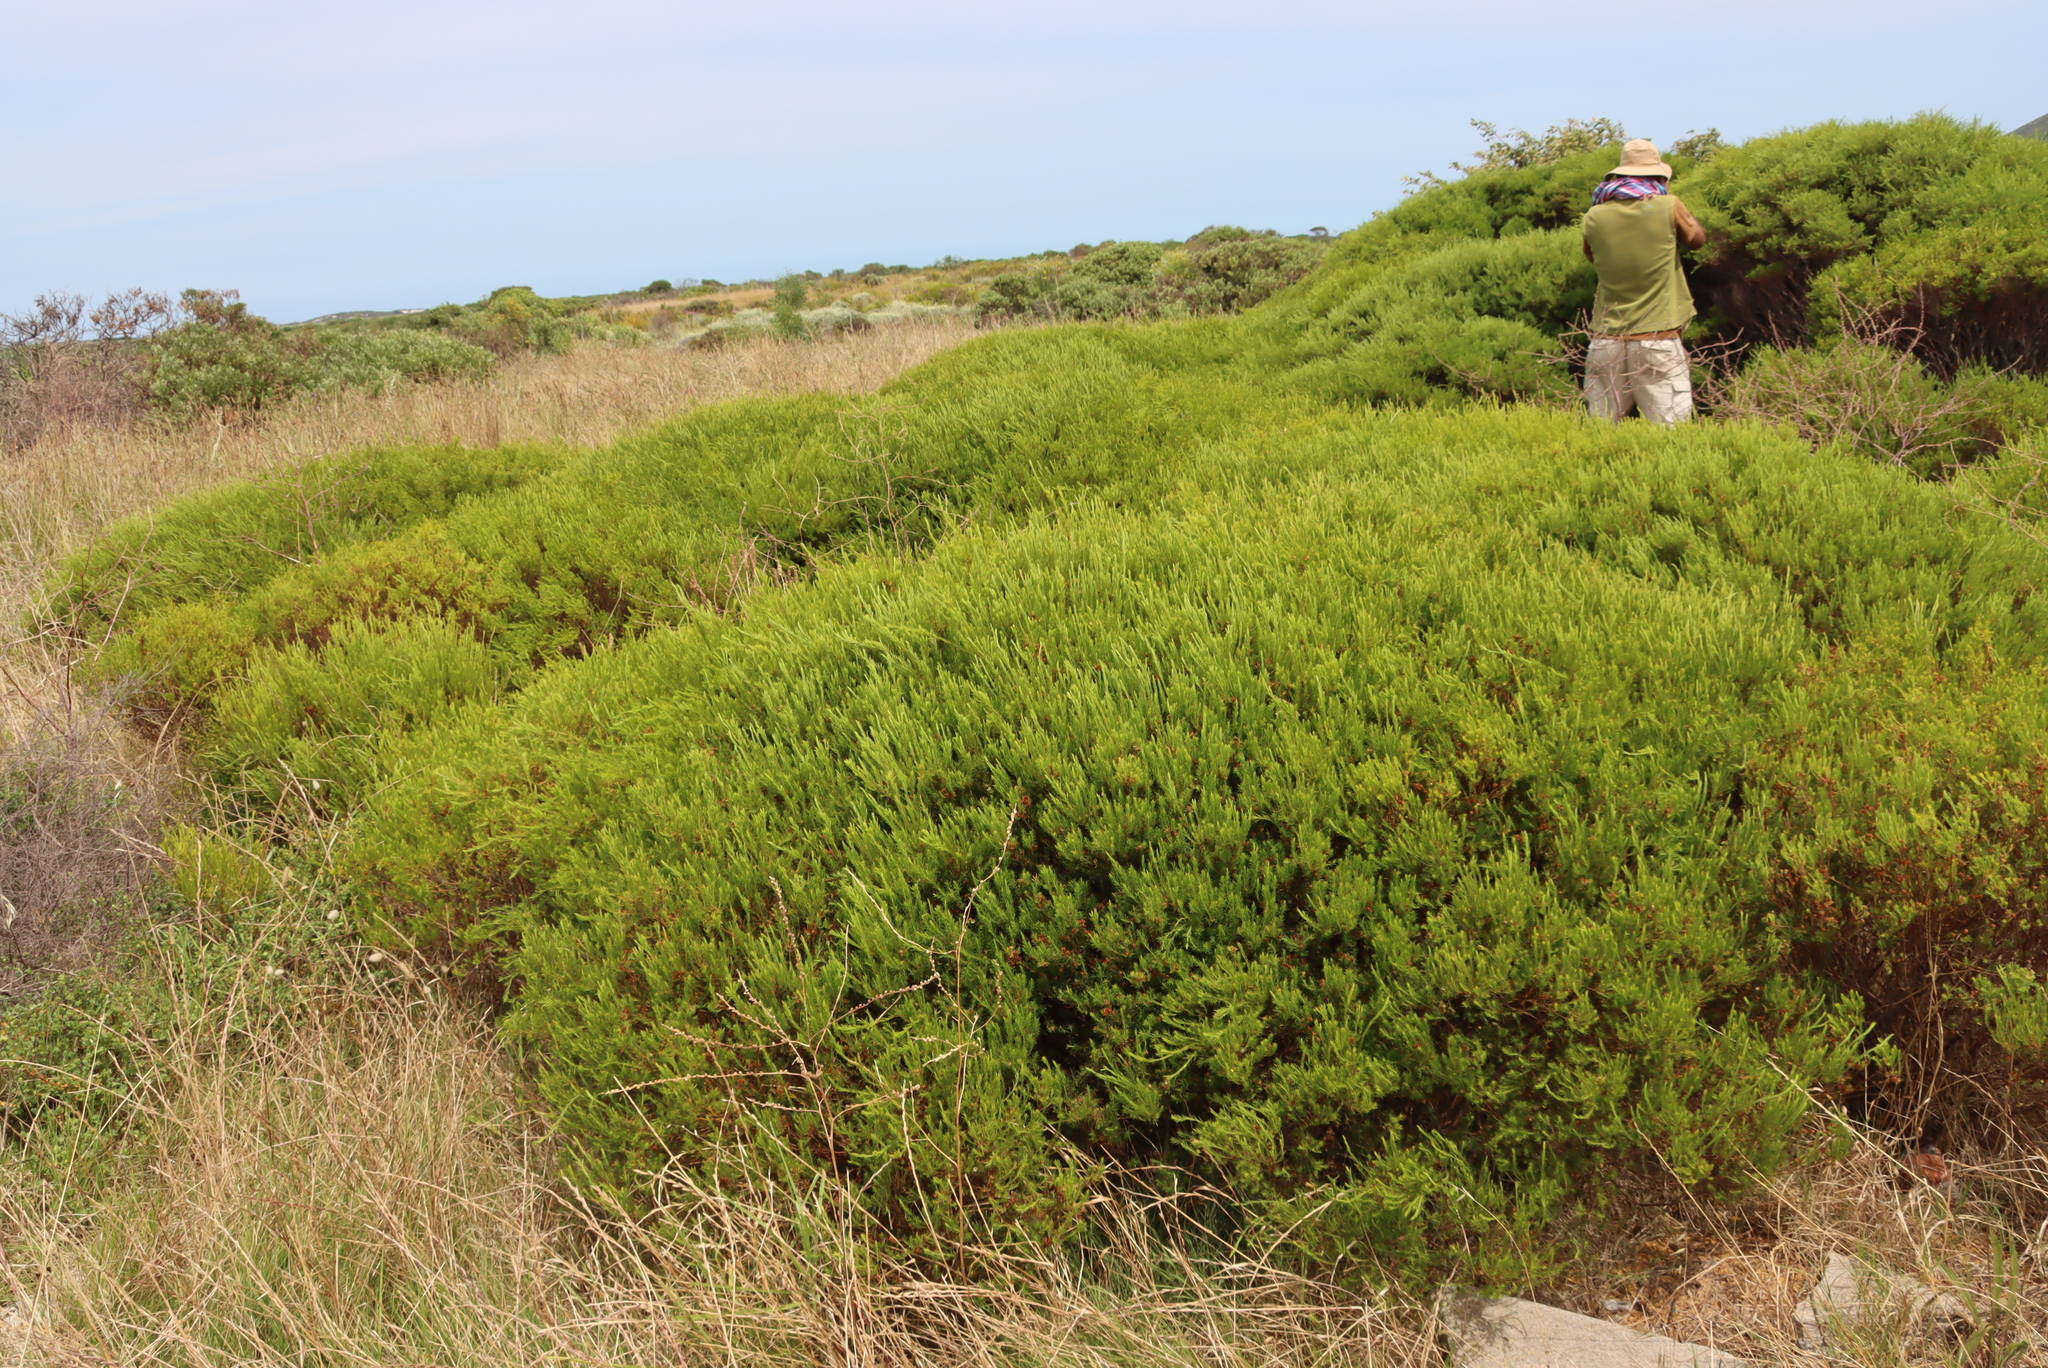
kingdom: Plantae
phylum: Tracheophyta
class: Magnoliopsida
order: Sapindales
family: Rutaceae
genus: Coleonema
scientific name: Coleonema pulchellum
